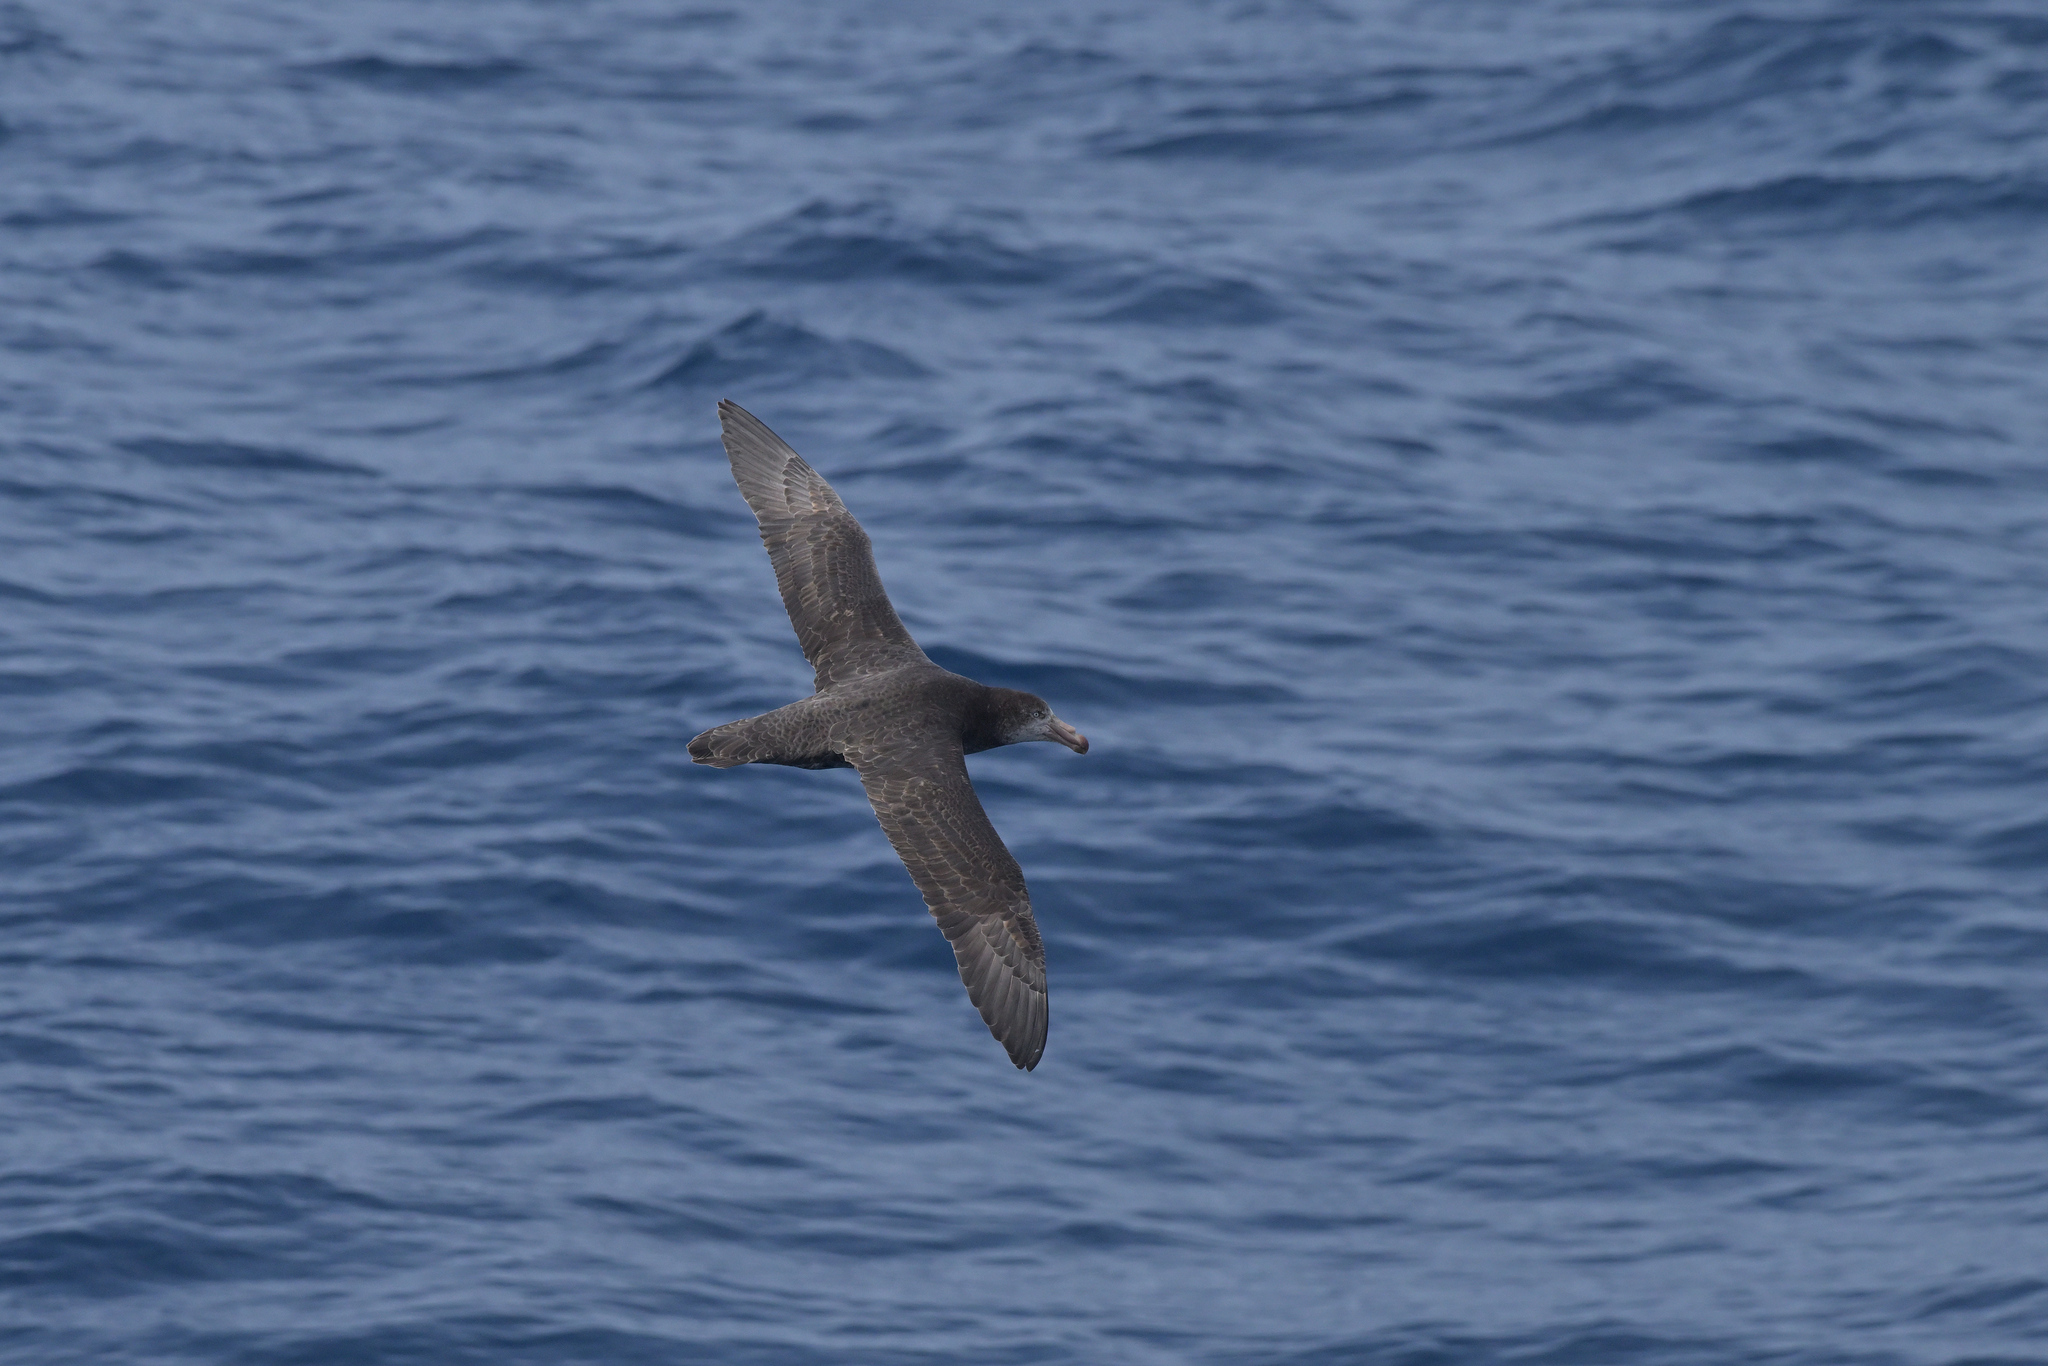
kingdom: Animalia
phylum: Chordata
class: Aves
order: Procellariiformes
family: Procellariidae
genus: Macronectes
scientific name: Macronectes halli
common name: Northern giant petrel
